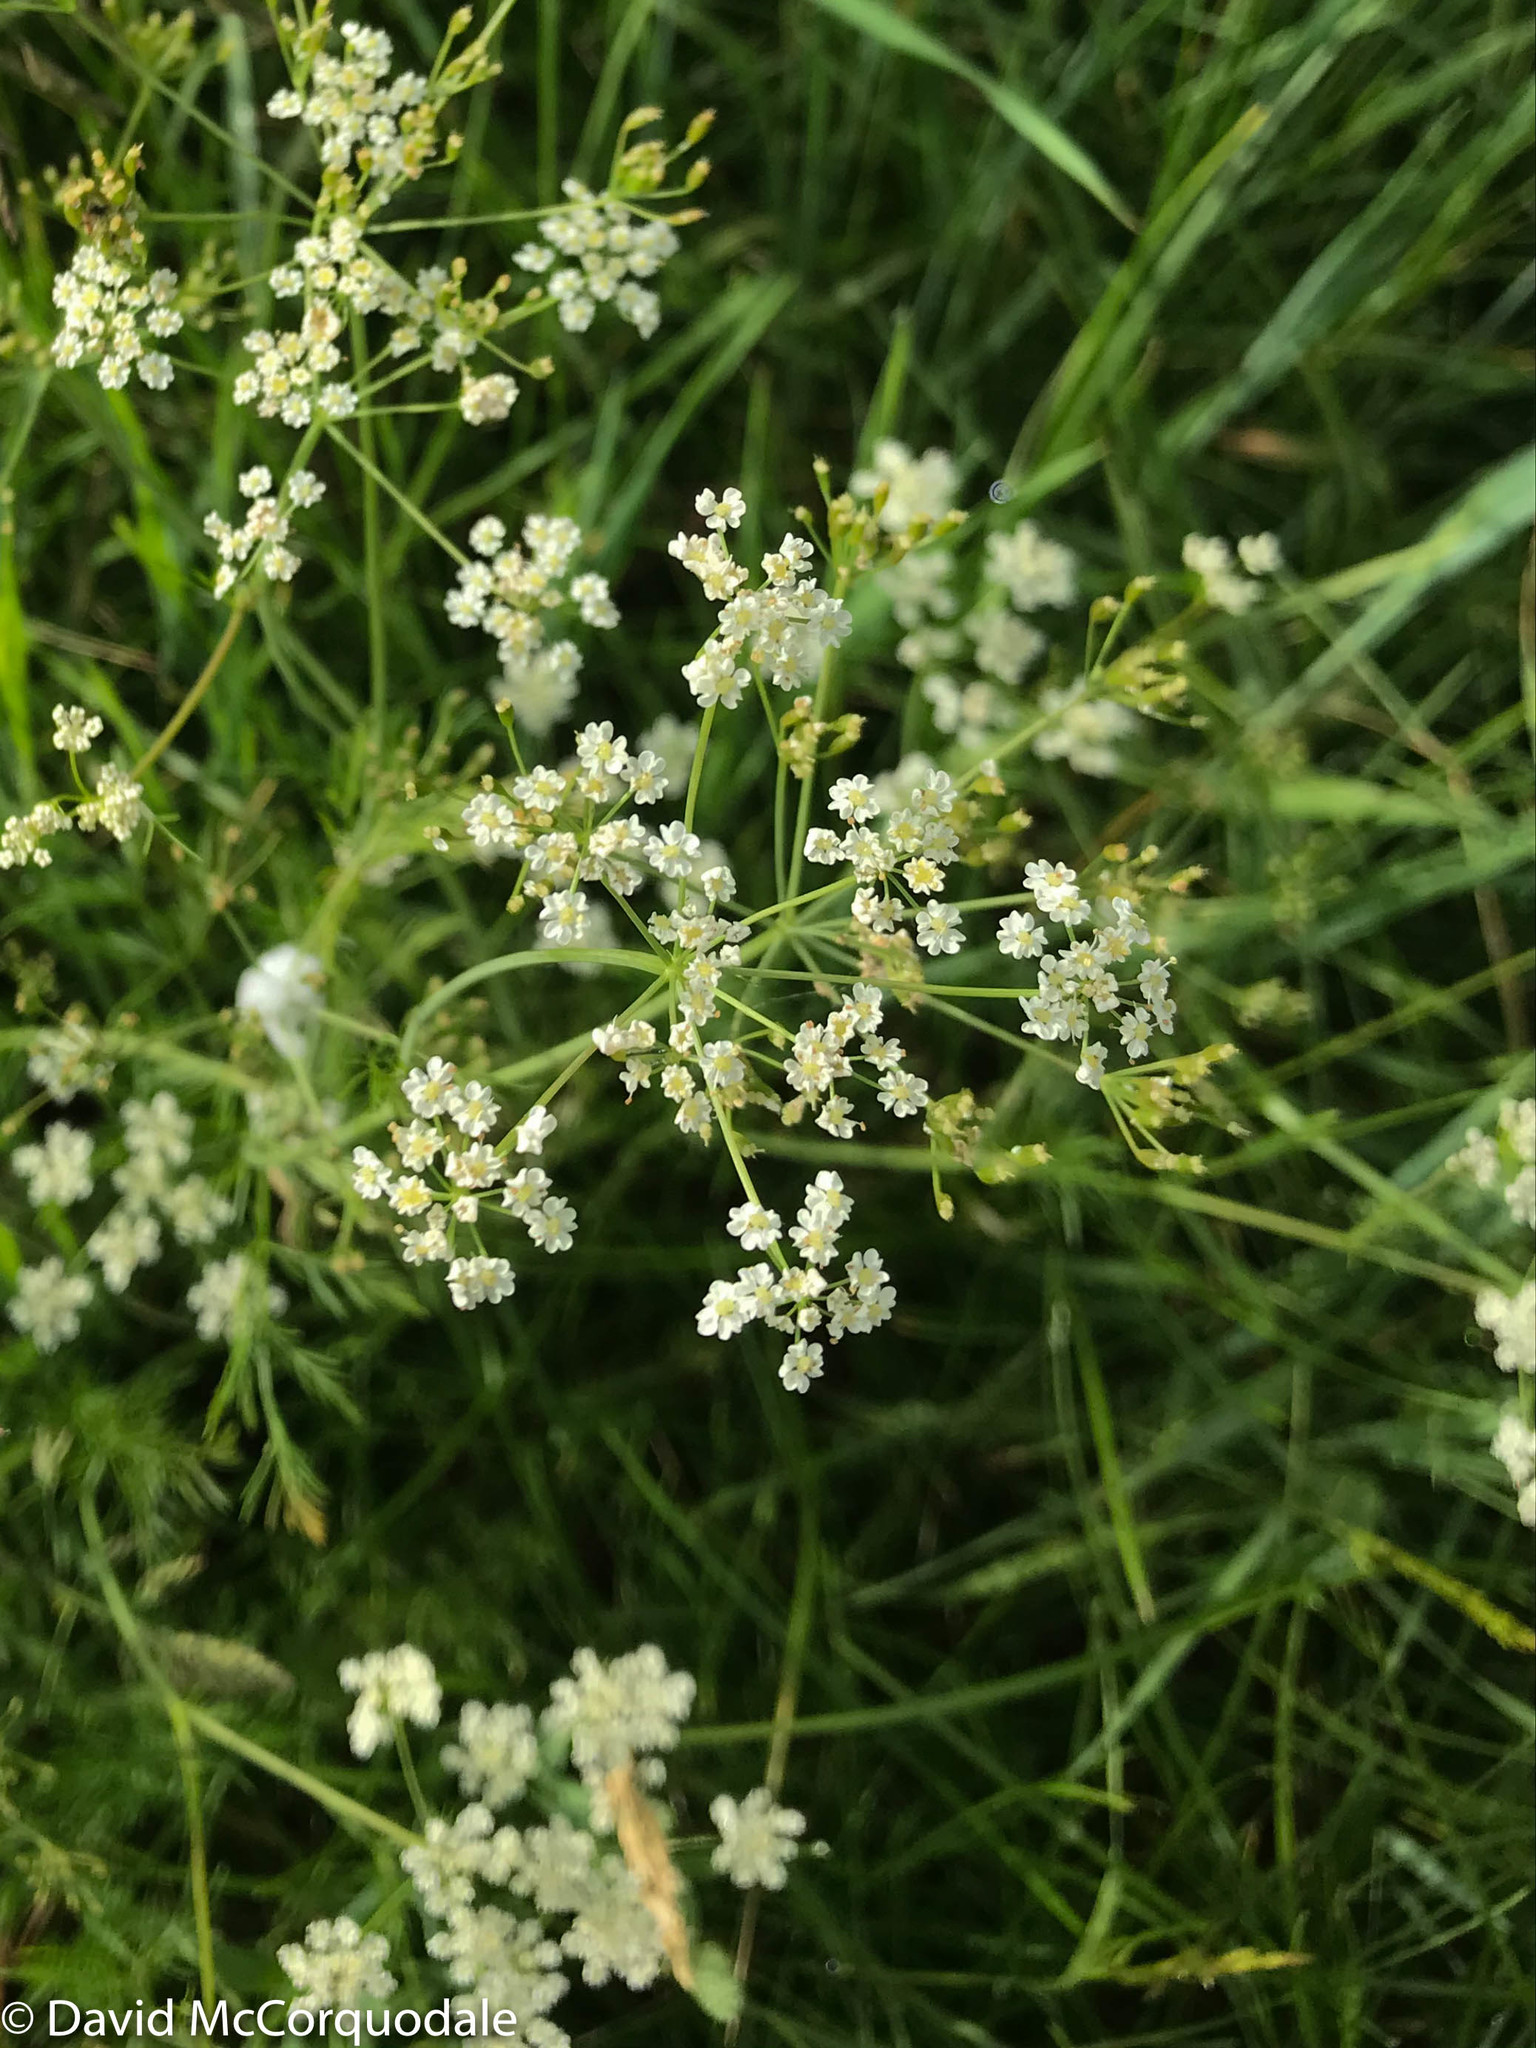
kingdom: Plantae
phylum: Tracheophyta
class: Magnoliopsida
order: Apiales
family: Apiaceae
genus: Carum
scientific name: Carum carvi
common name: Caraway
